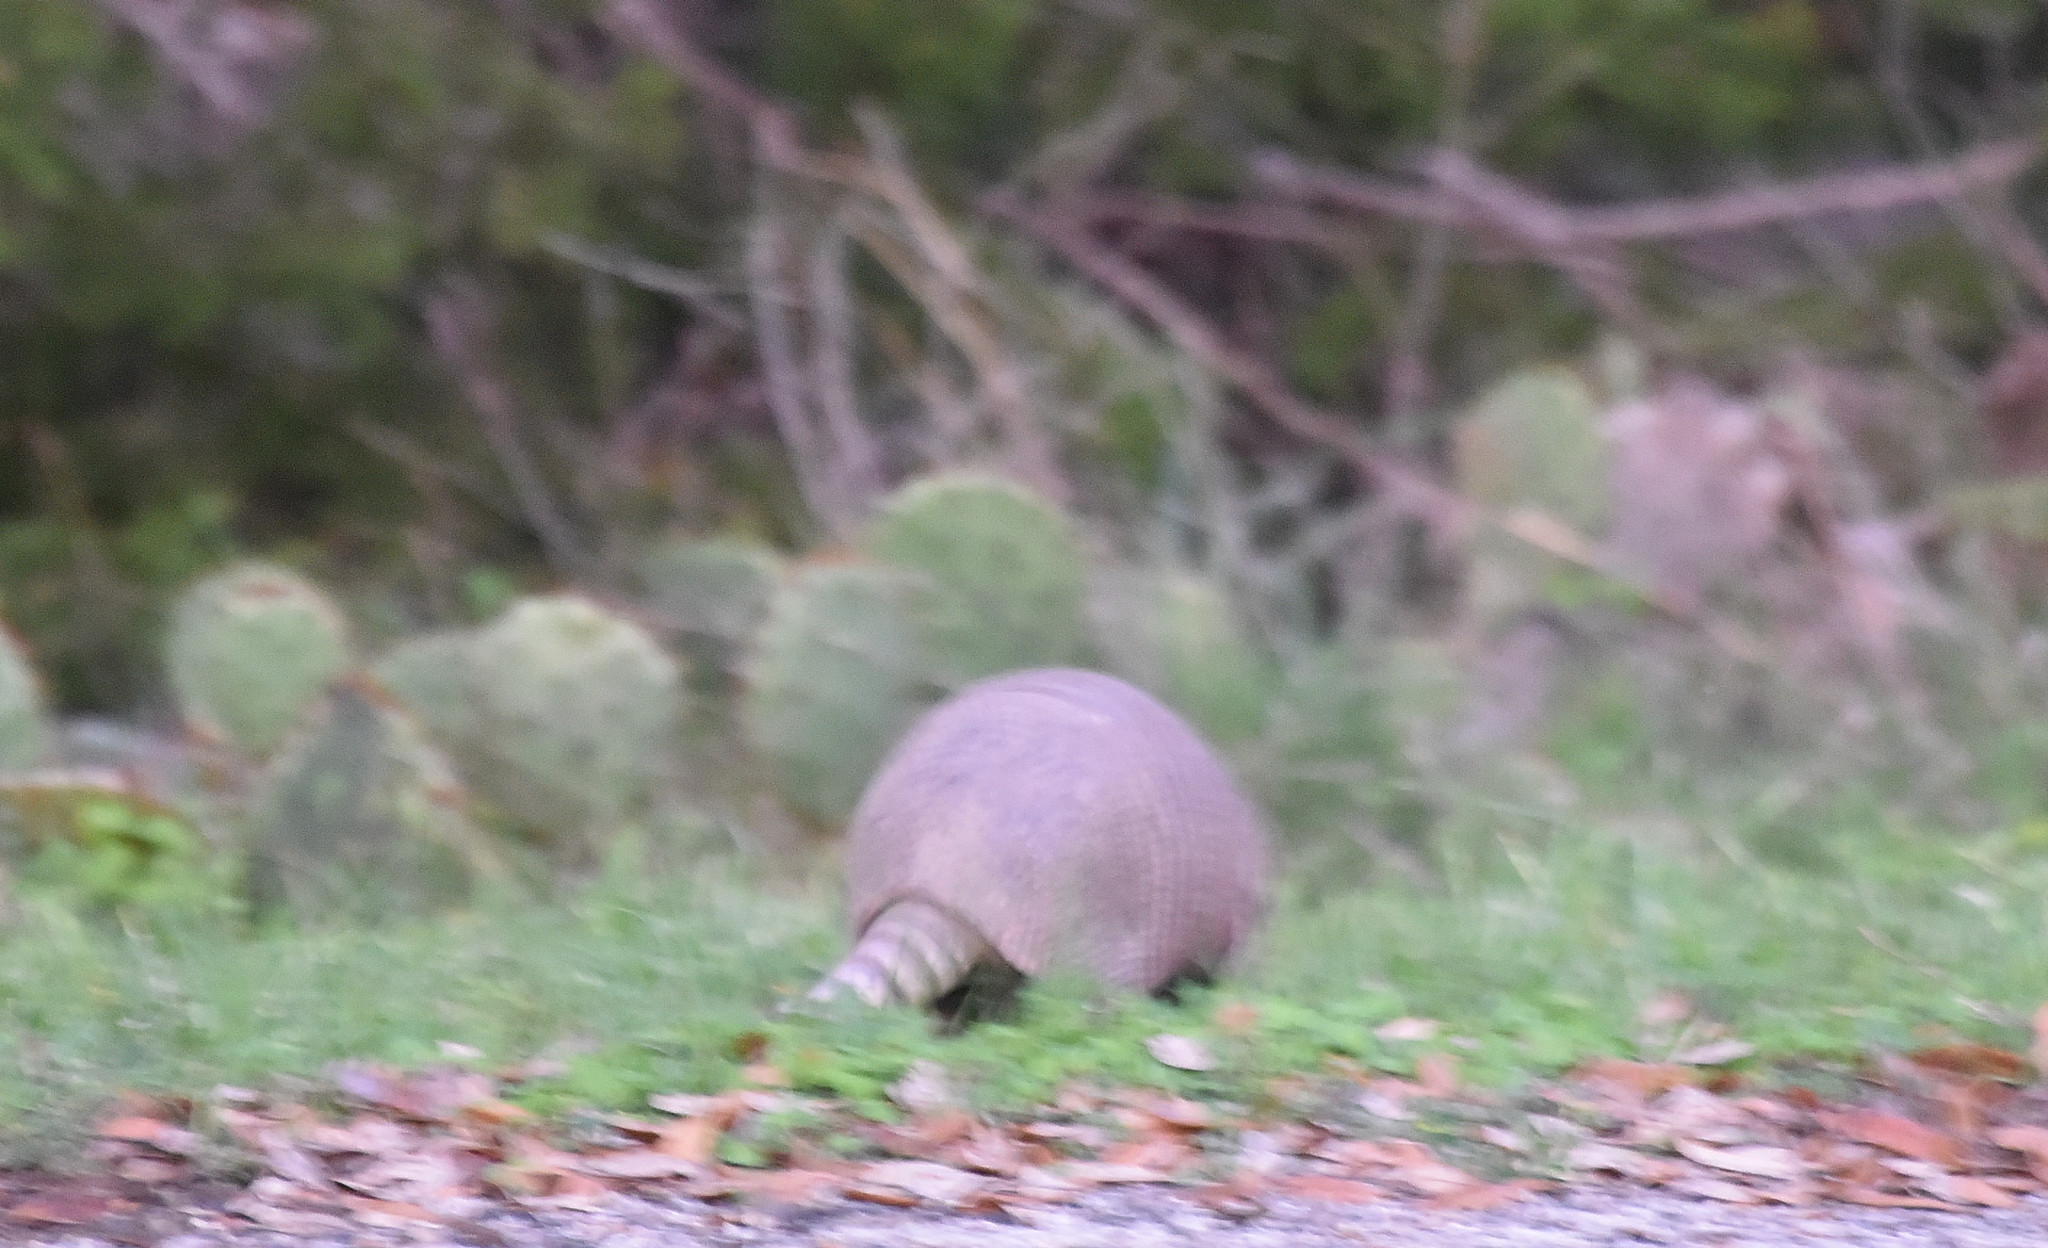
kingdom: Animalia
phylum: Chordata
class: Mammalia
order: Cingulata
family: Dasypodidae
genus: Dasypus
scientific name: Dasypus novemcinctus
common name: Nine-banded armadillo
